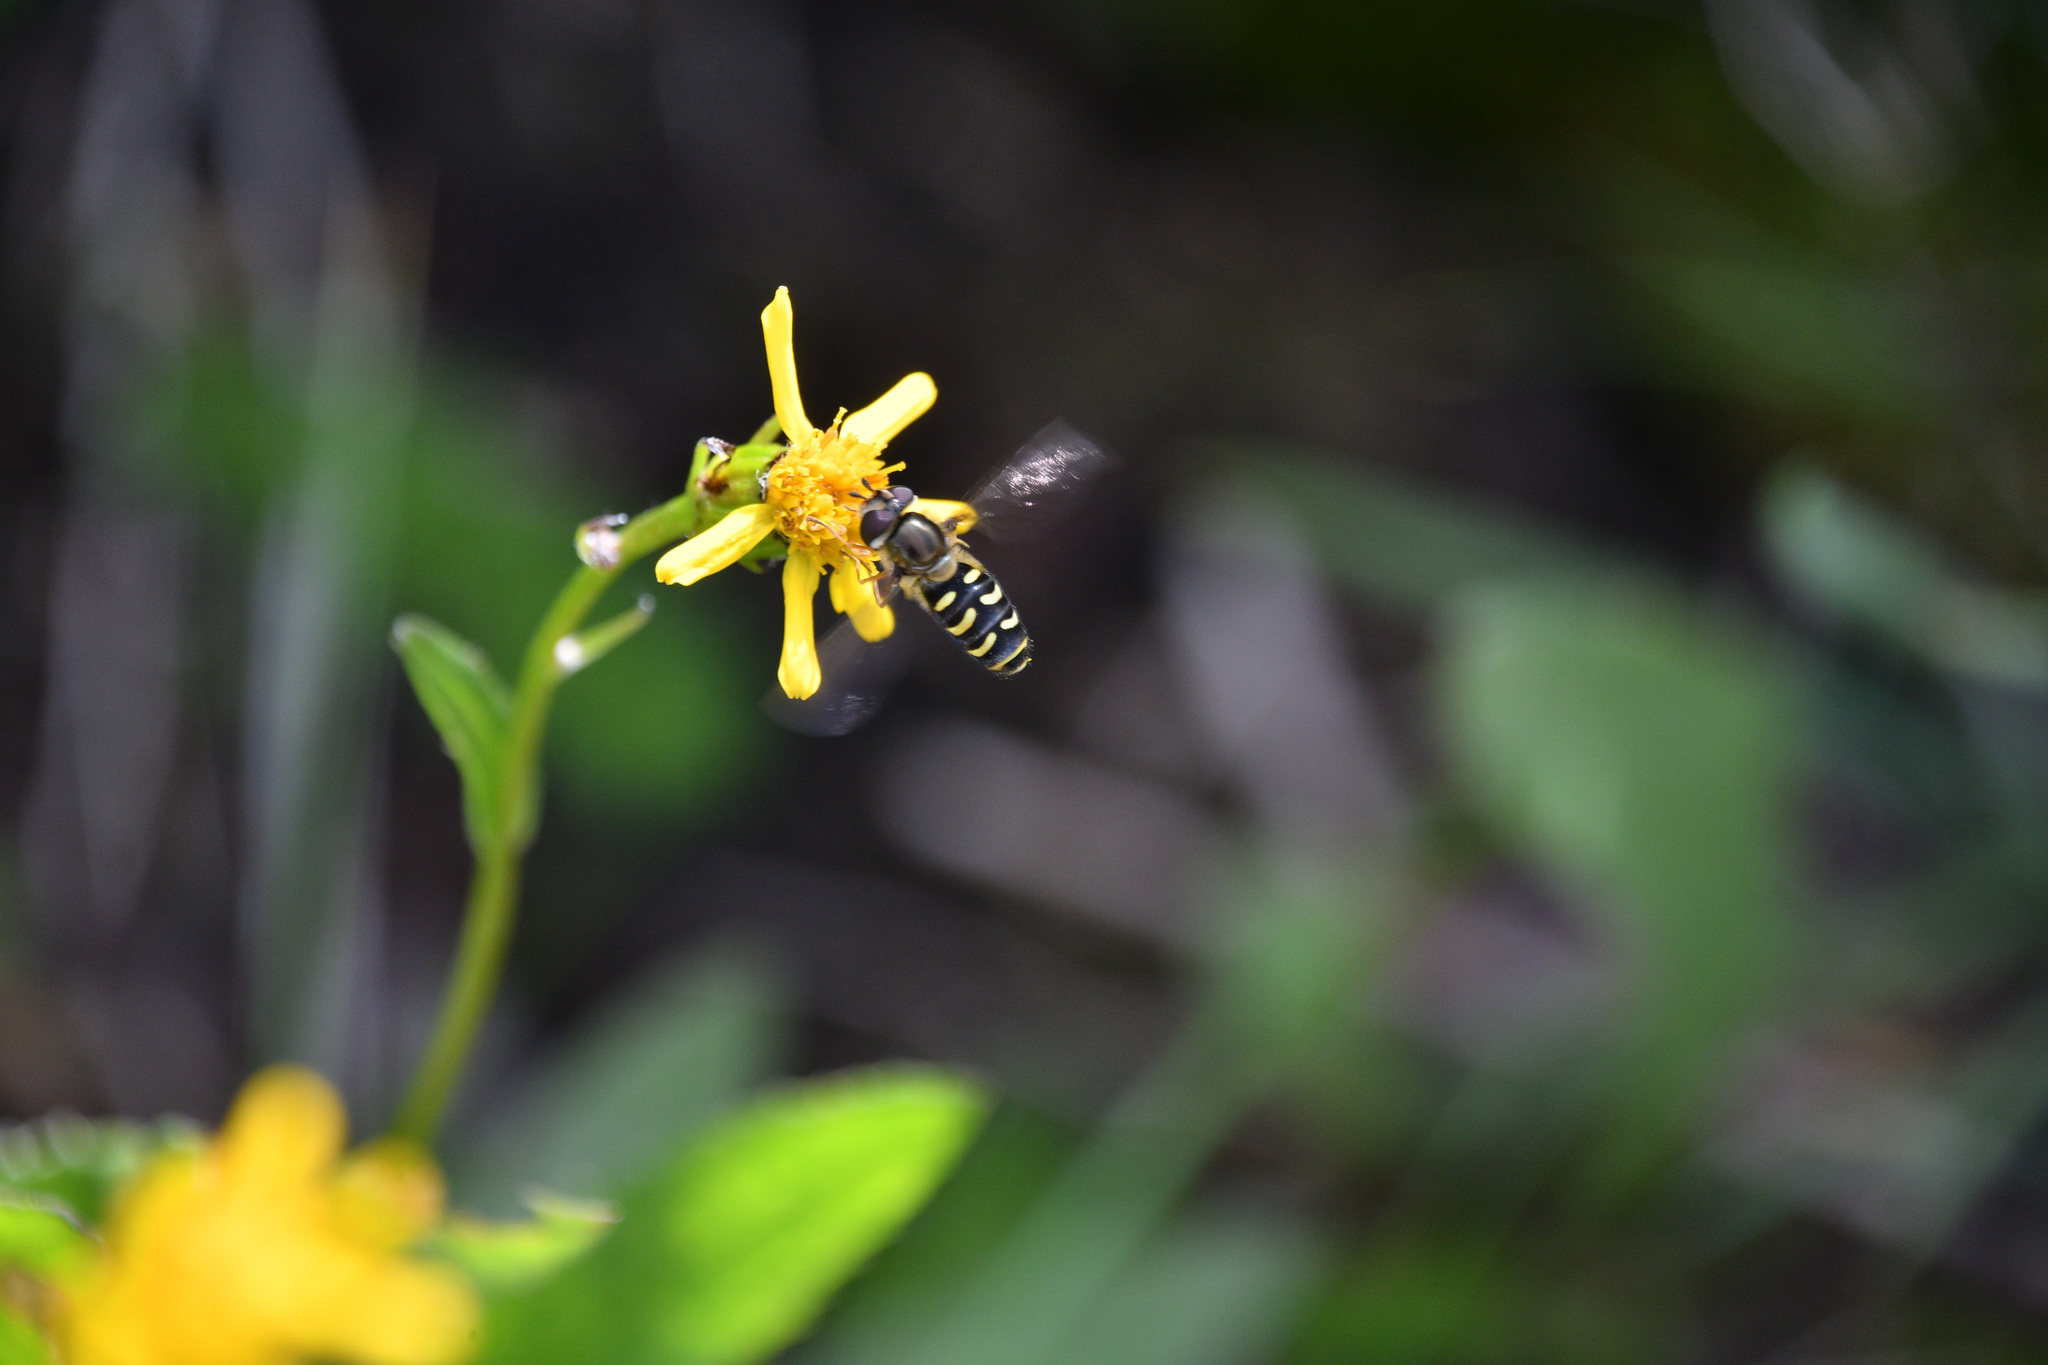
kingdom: Animalia
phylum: Arthropoda
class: Insecta
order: Diptera
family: Syrphidae
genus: Lapposyrphus
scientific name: Lapposyrphus lapponicus
